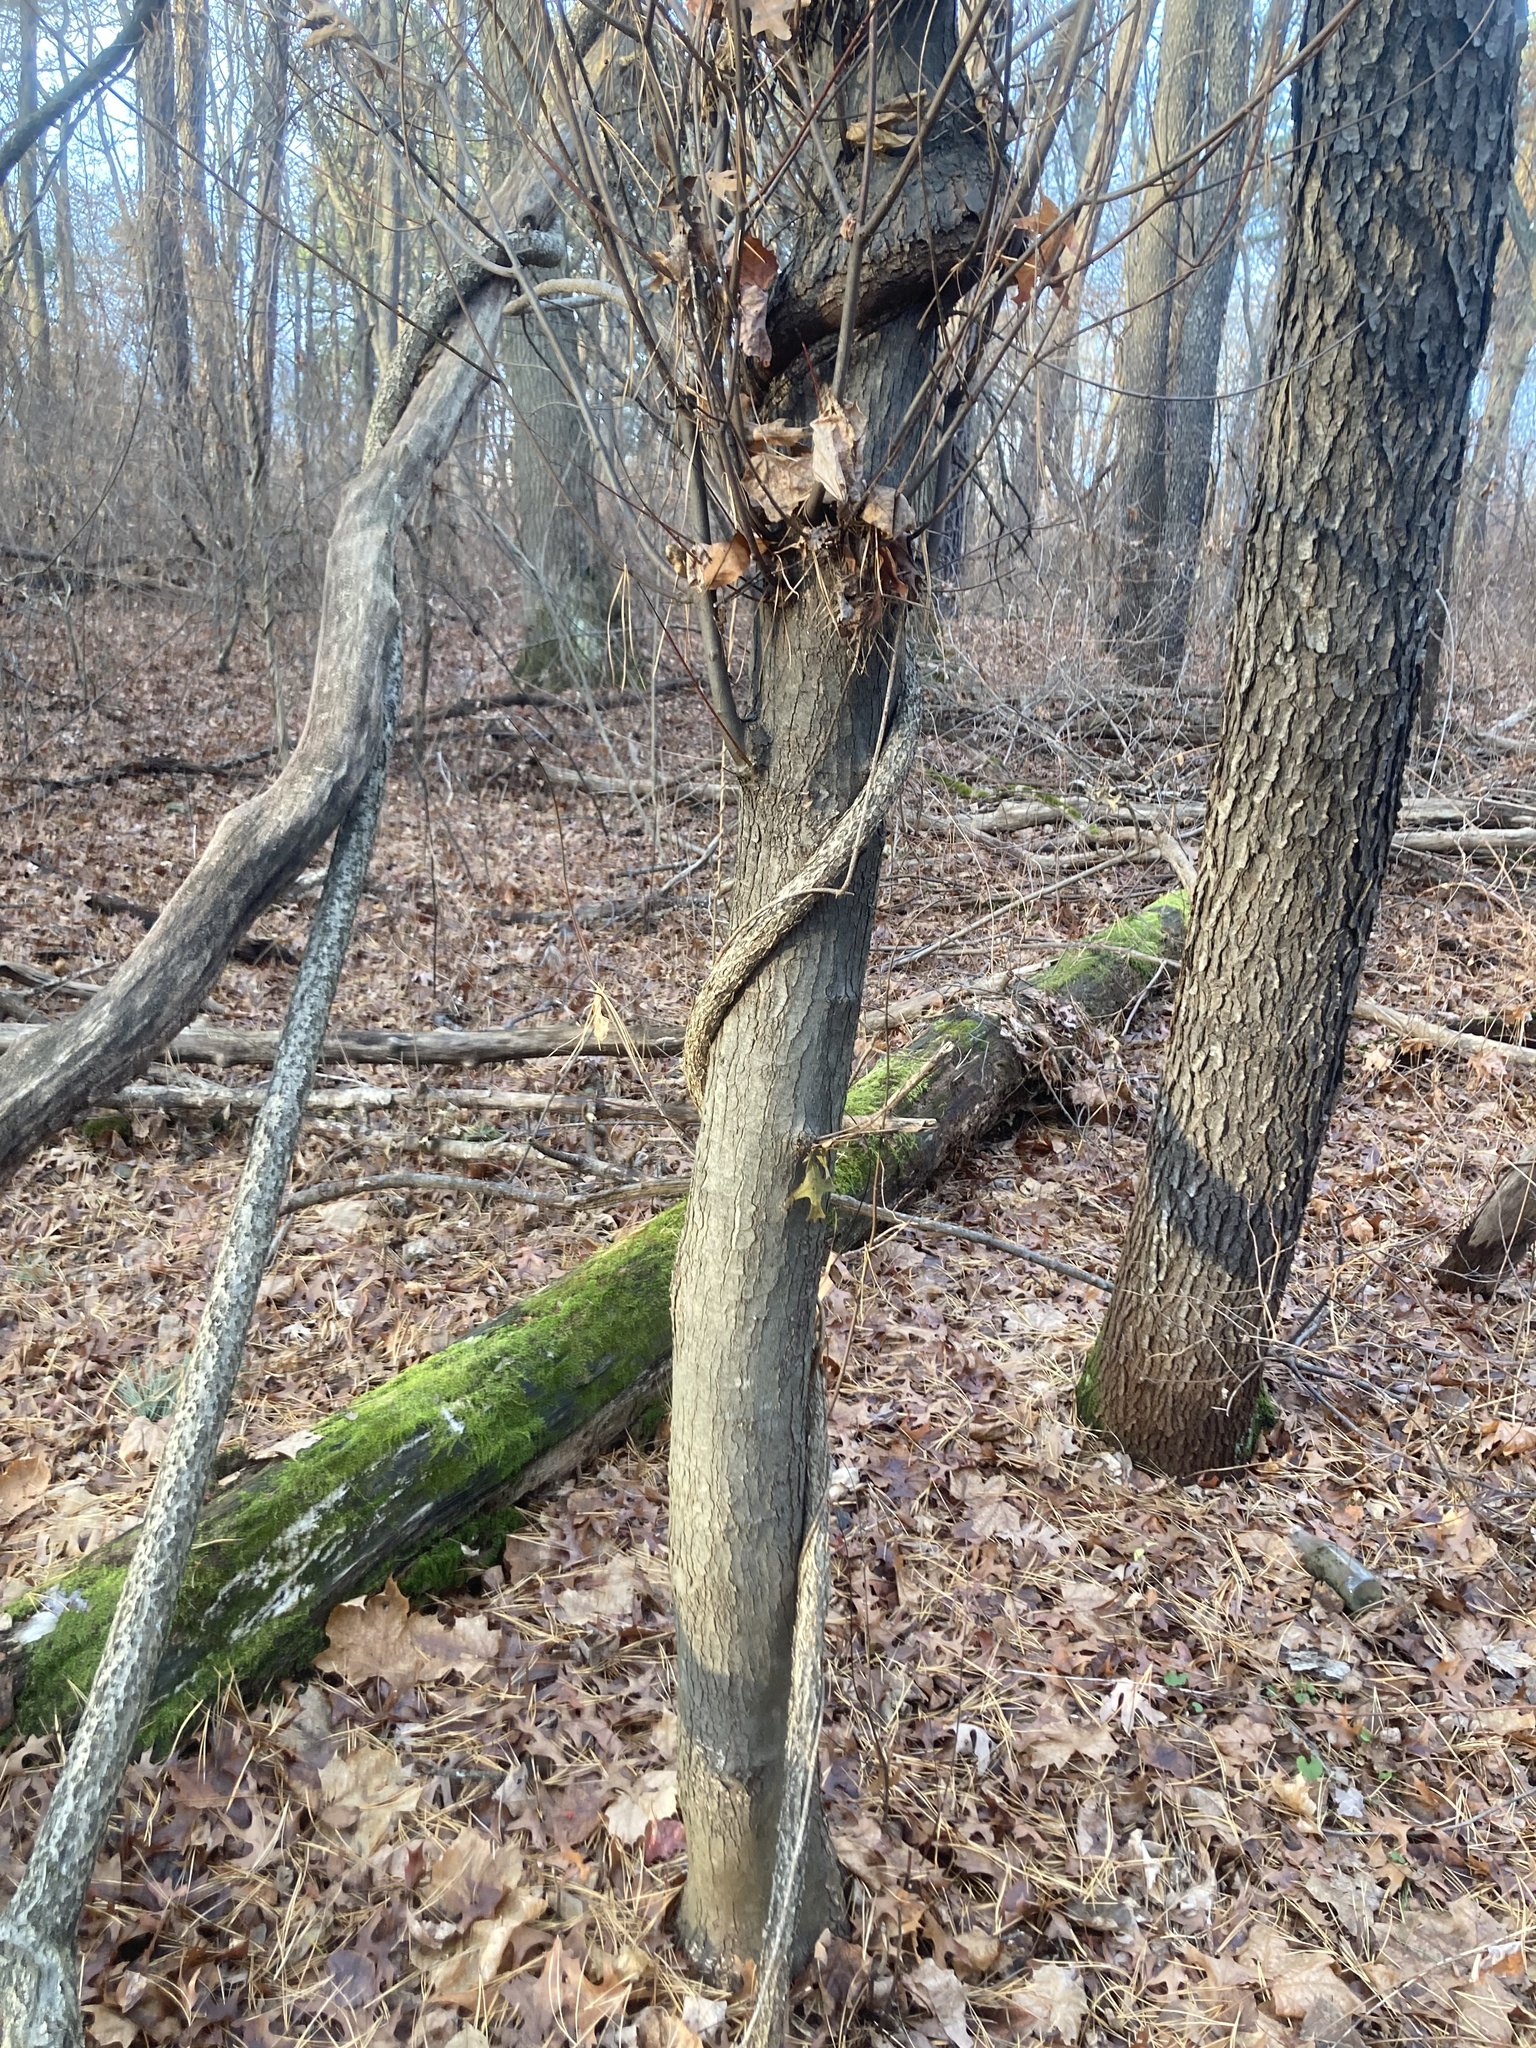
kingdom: Plantae
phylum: Tracheophyta
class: Magnoliopsida
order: Celastrales
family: Celastraceae
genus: Celastrus
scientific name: Celastrus orbiculatus
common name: Oriental bittersweet
